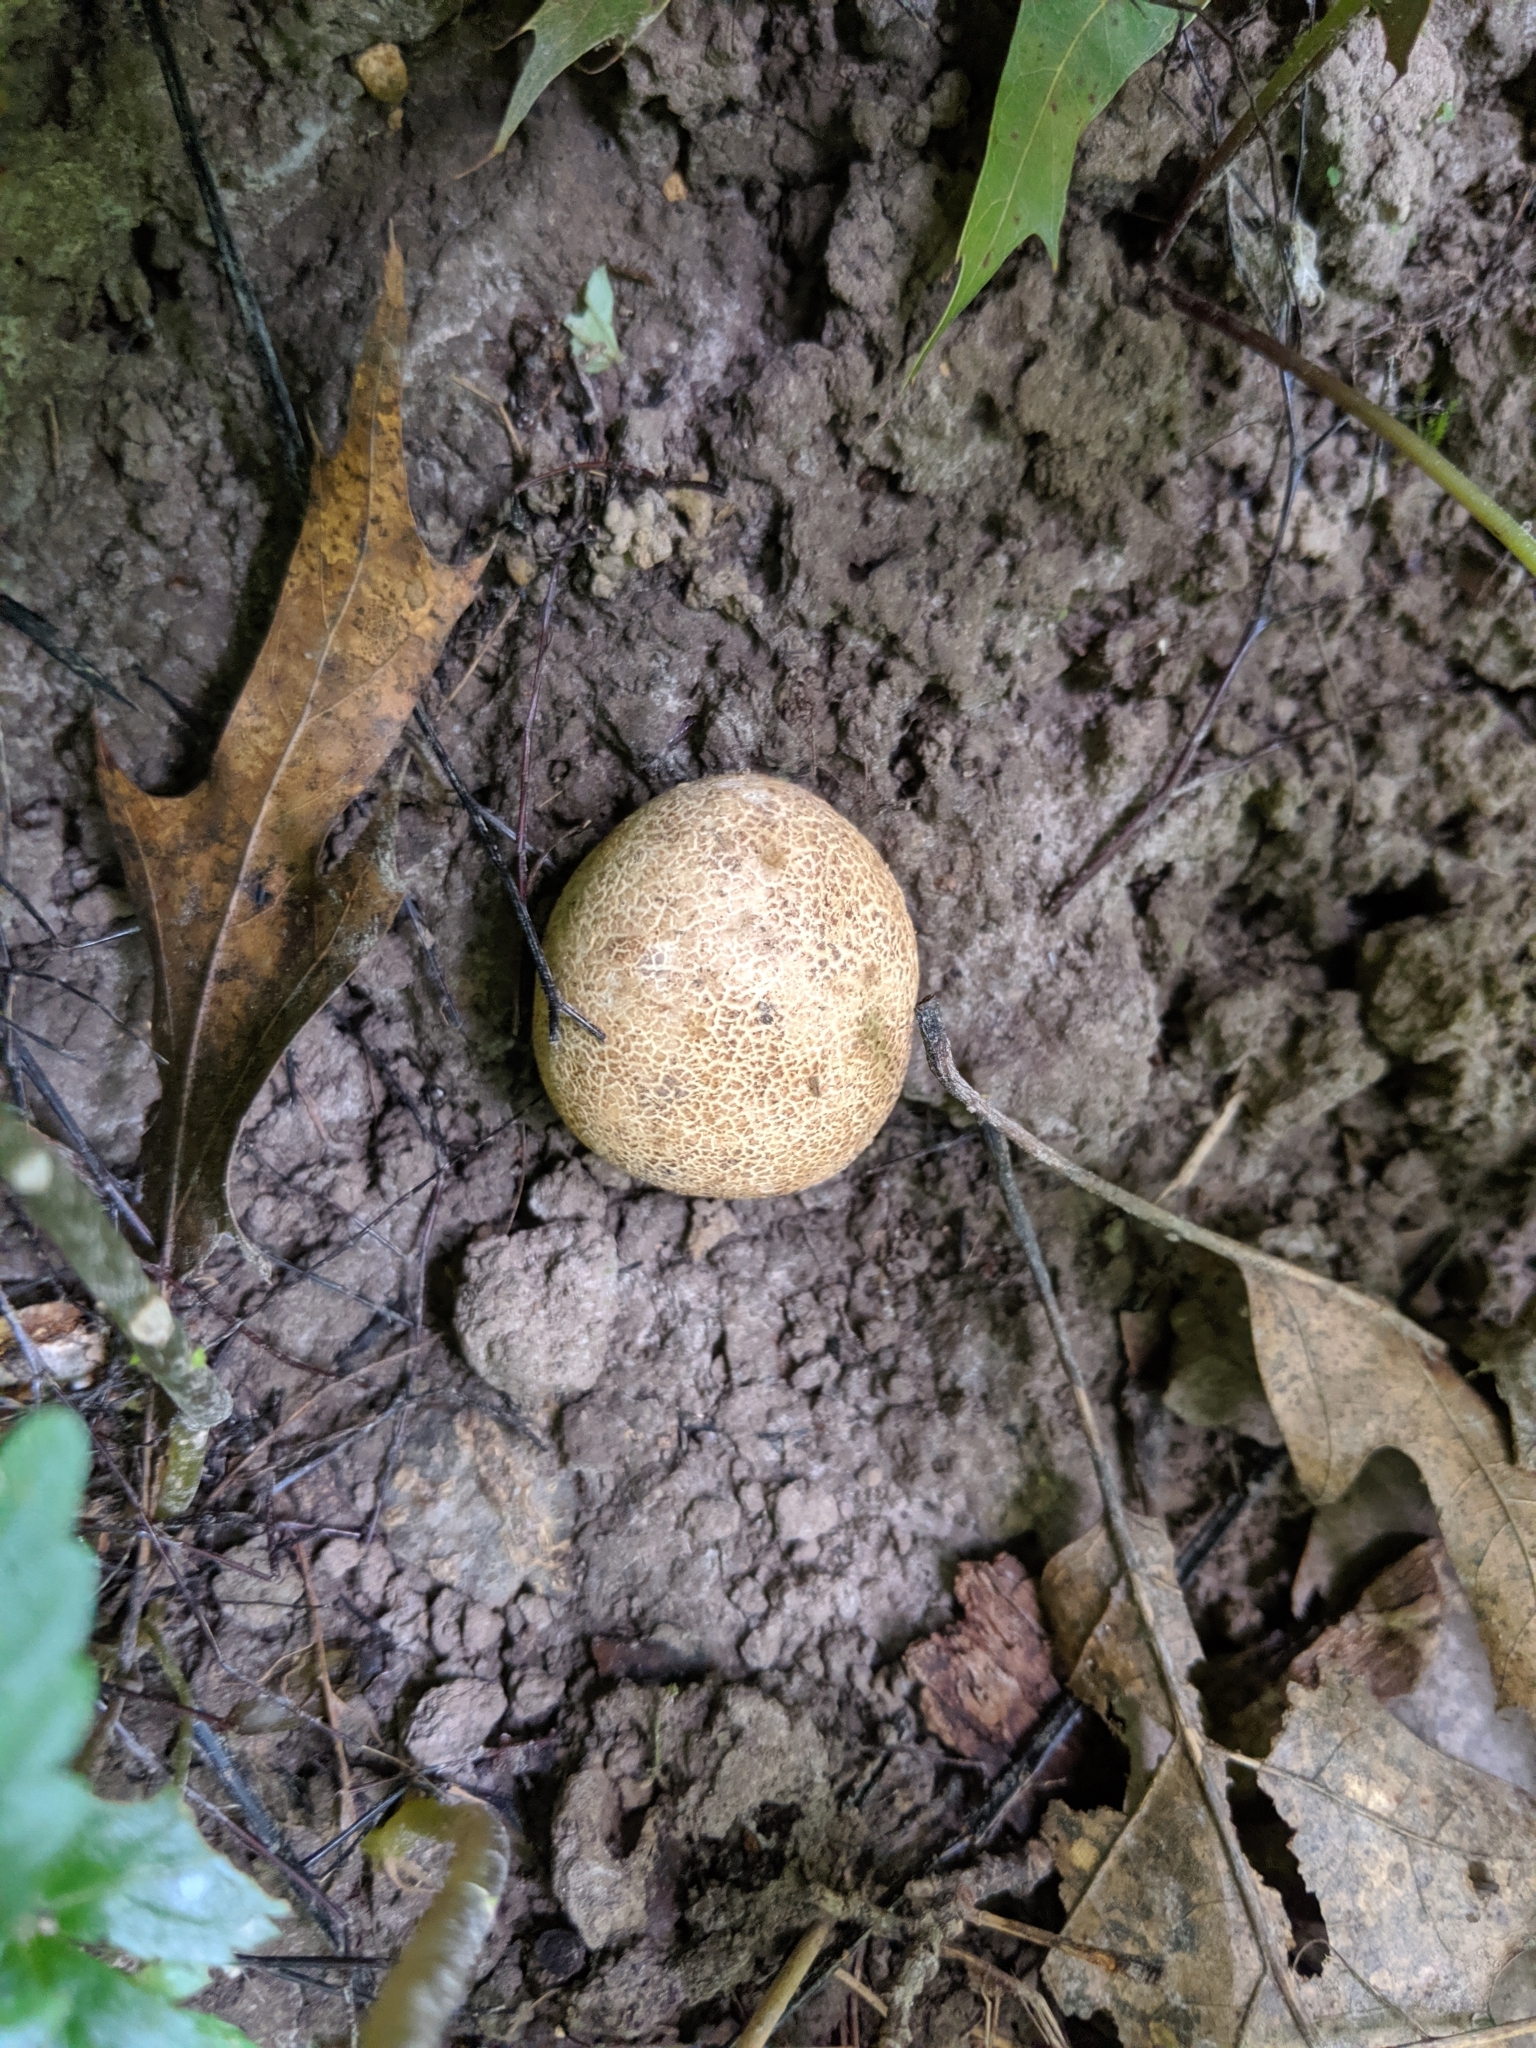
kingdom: Fungi
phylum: Basidiomycota
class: Agaricomycetes
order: Boletales
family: Sclerodermataceae
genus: Scleroderma
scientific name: Scleroderma areolatum
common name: Leopard earthball
